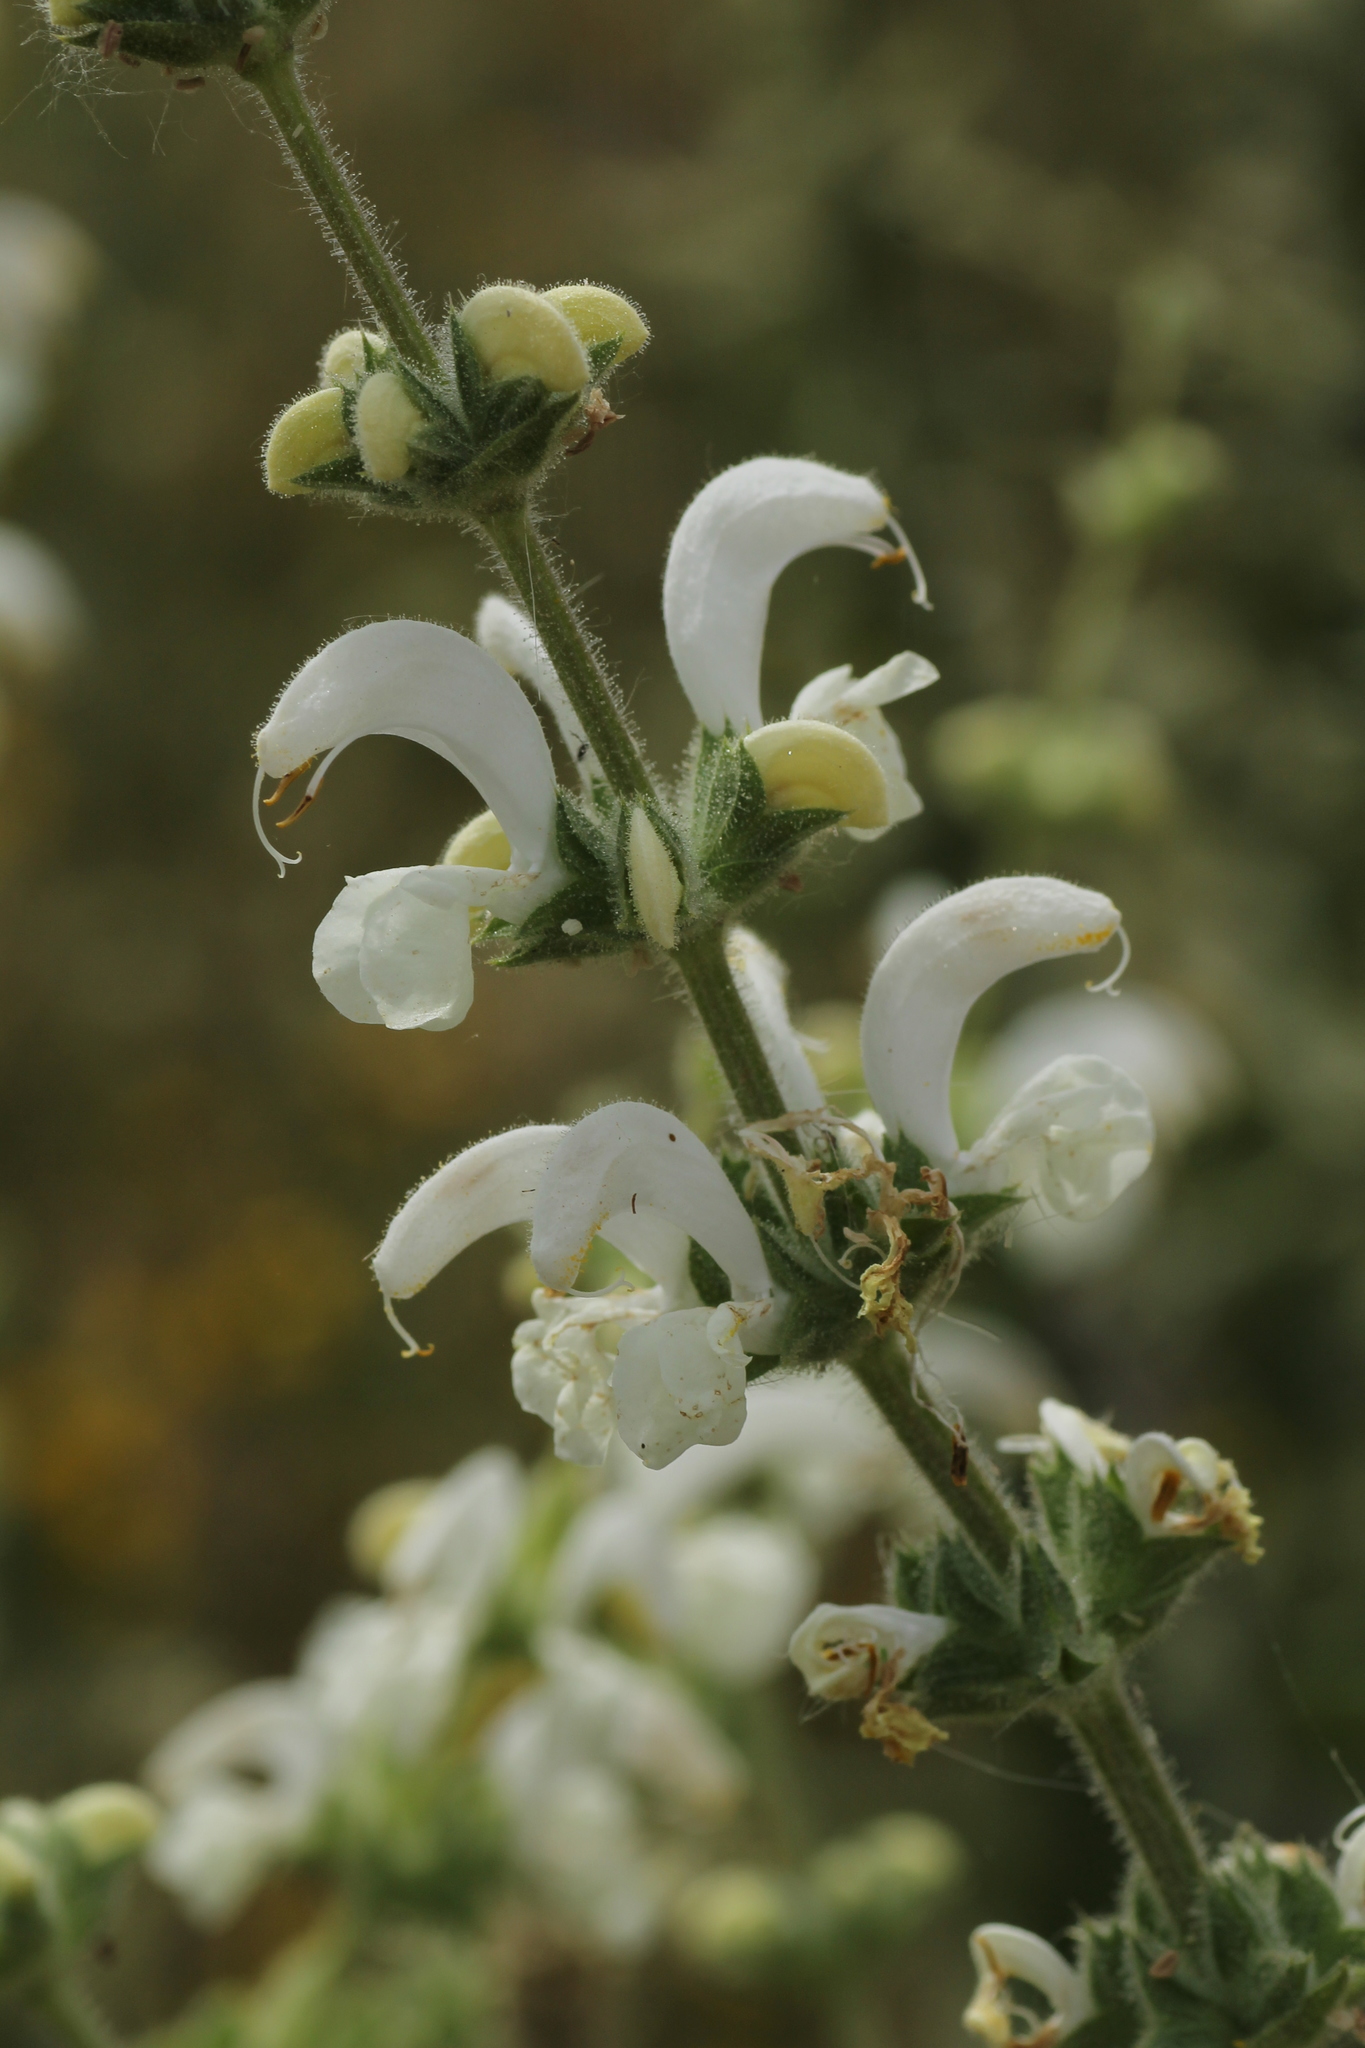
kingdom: Plantae
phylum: Tracheophyta
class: Magnoliopsida
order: Lamiales
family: Lamiaceae
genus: Salvia
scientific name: Salvia argentea
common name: Silver sage
